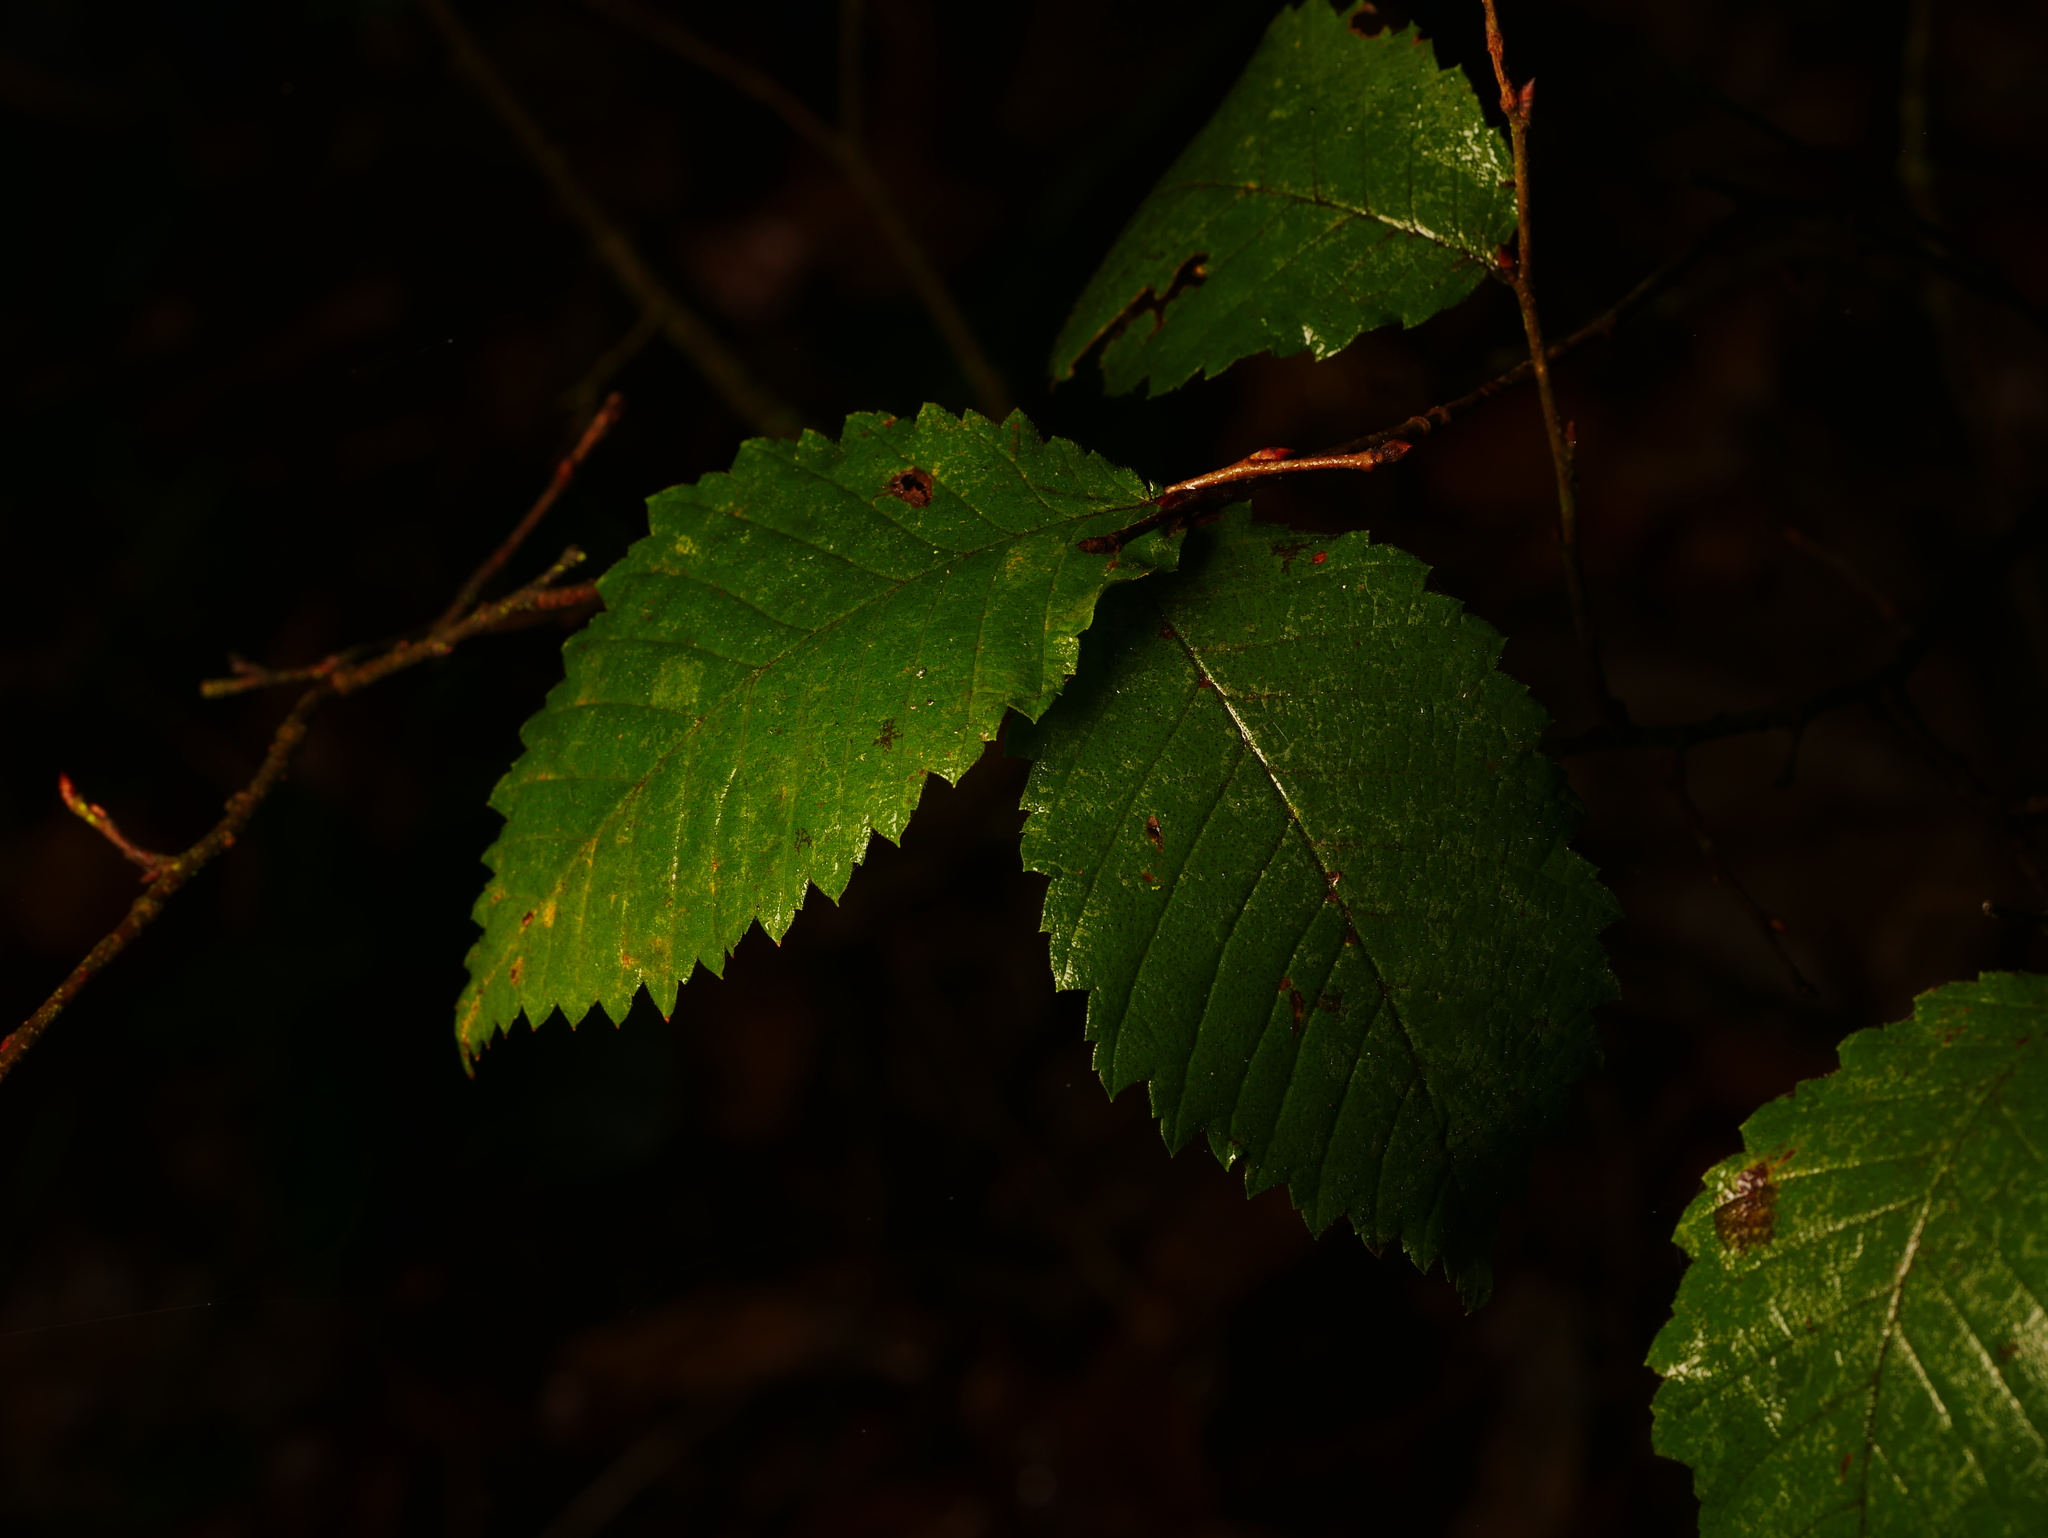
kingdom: Plantae
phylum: Tracheophyta
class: Magnoliopsida
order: Rosales
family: Ulmaceae
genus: Ulmus
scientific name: Ulmus minor
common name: Small-leaved elm
